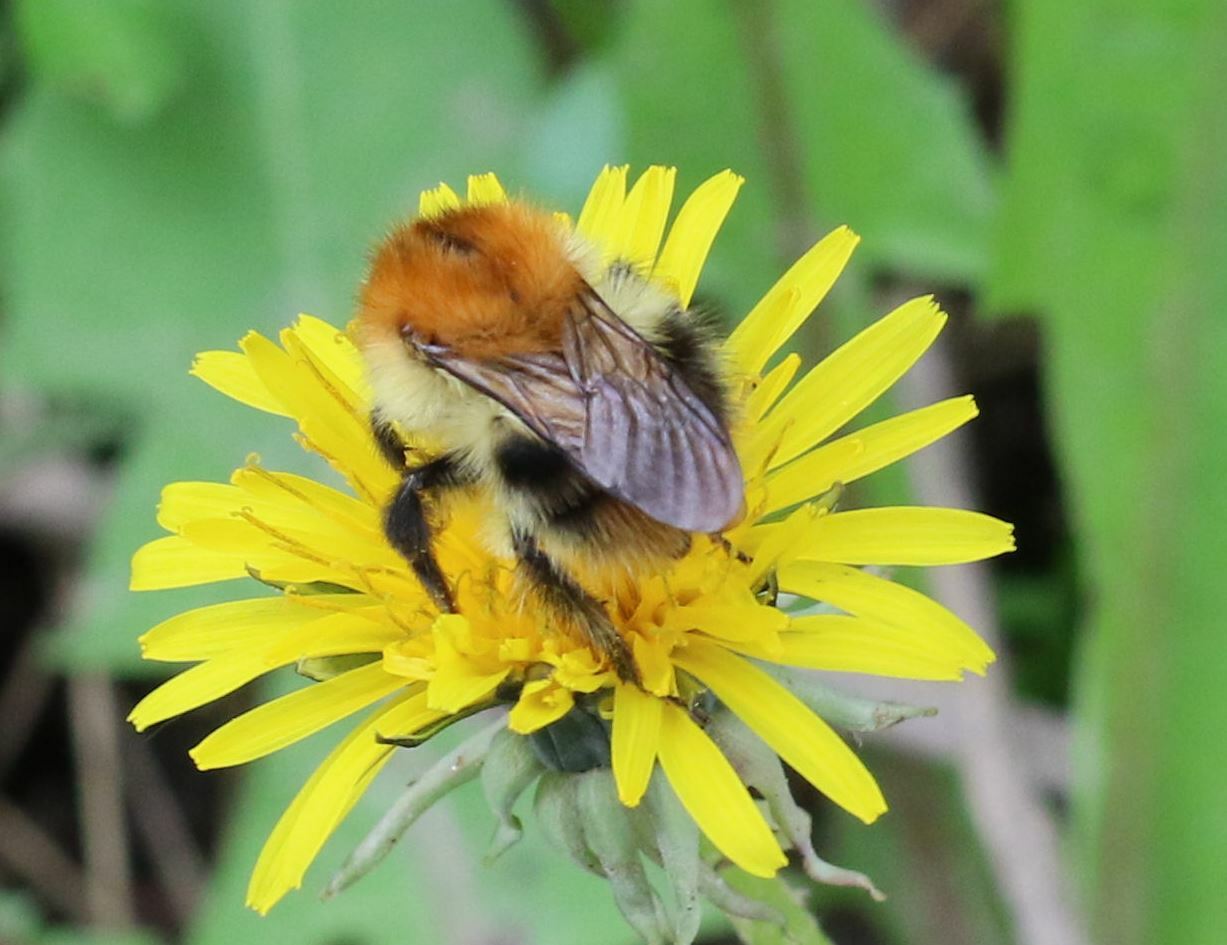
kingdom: Animalia
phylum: Arthropoda
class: Insecta
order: Hymenoptera
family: Apidae
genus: Bombus
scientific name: Bombus pascuorum
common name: Common carder bee
